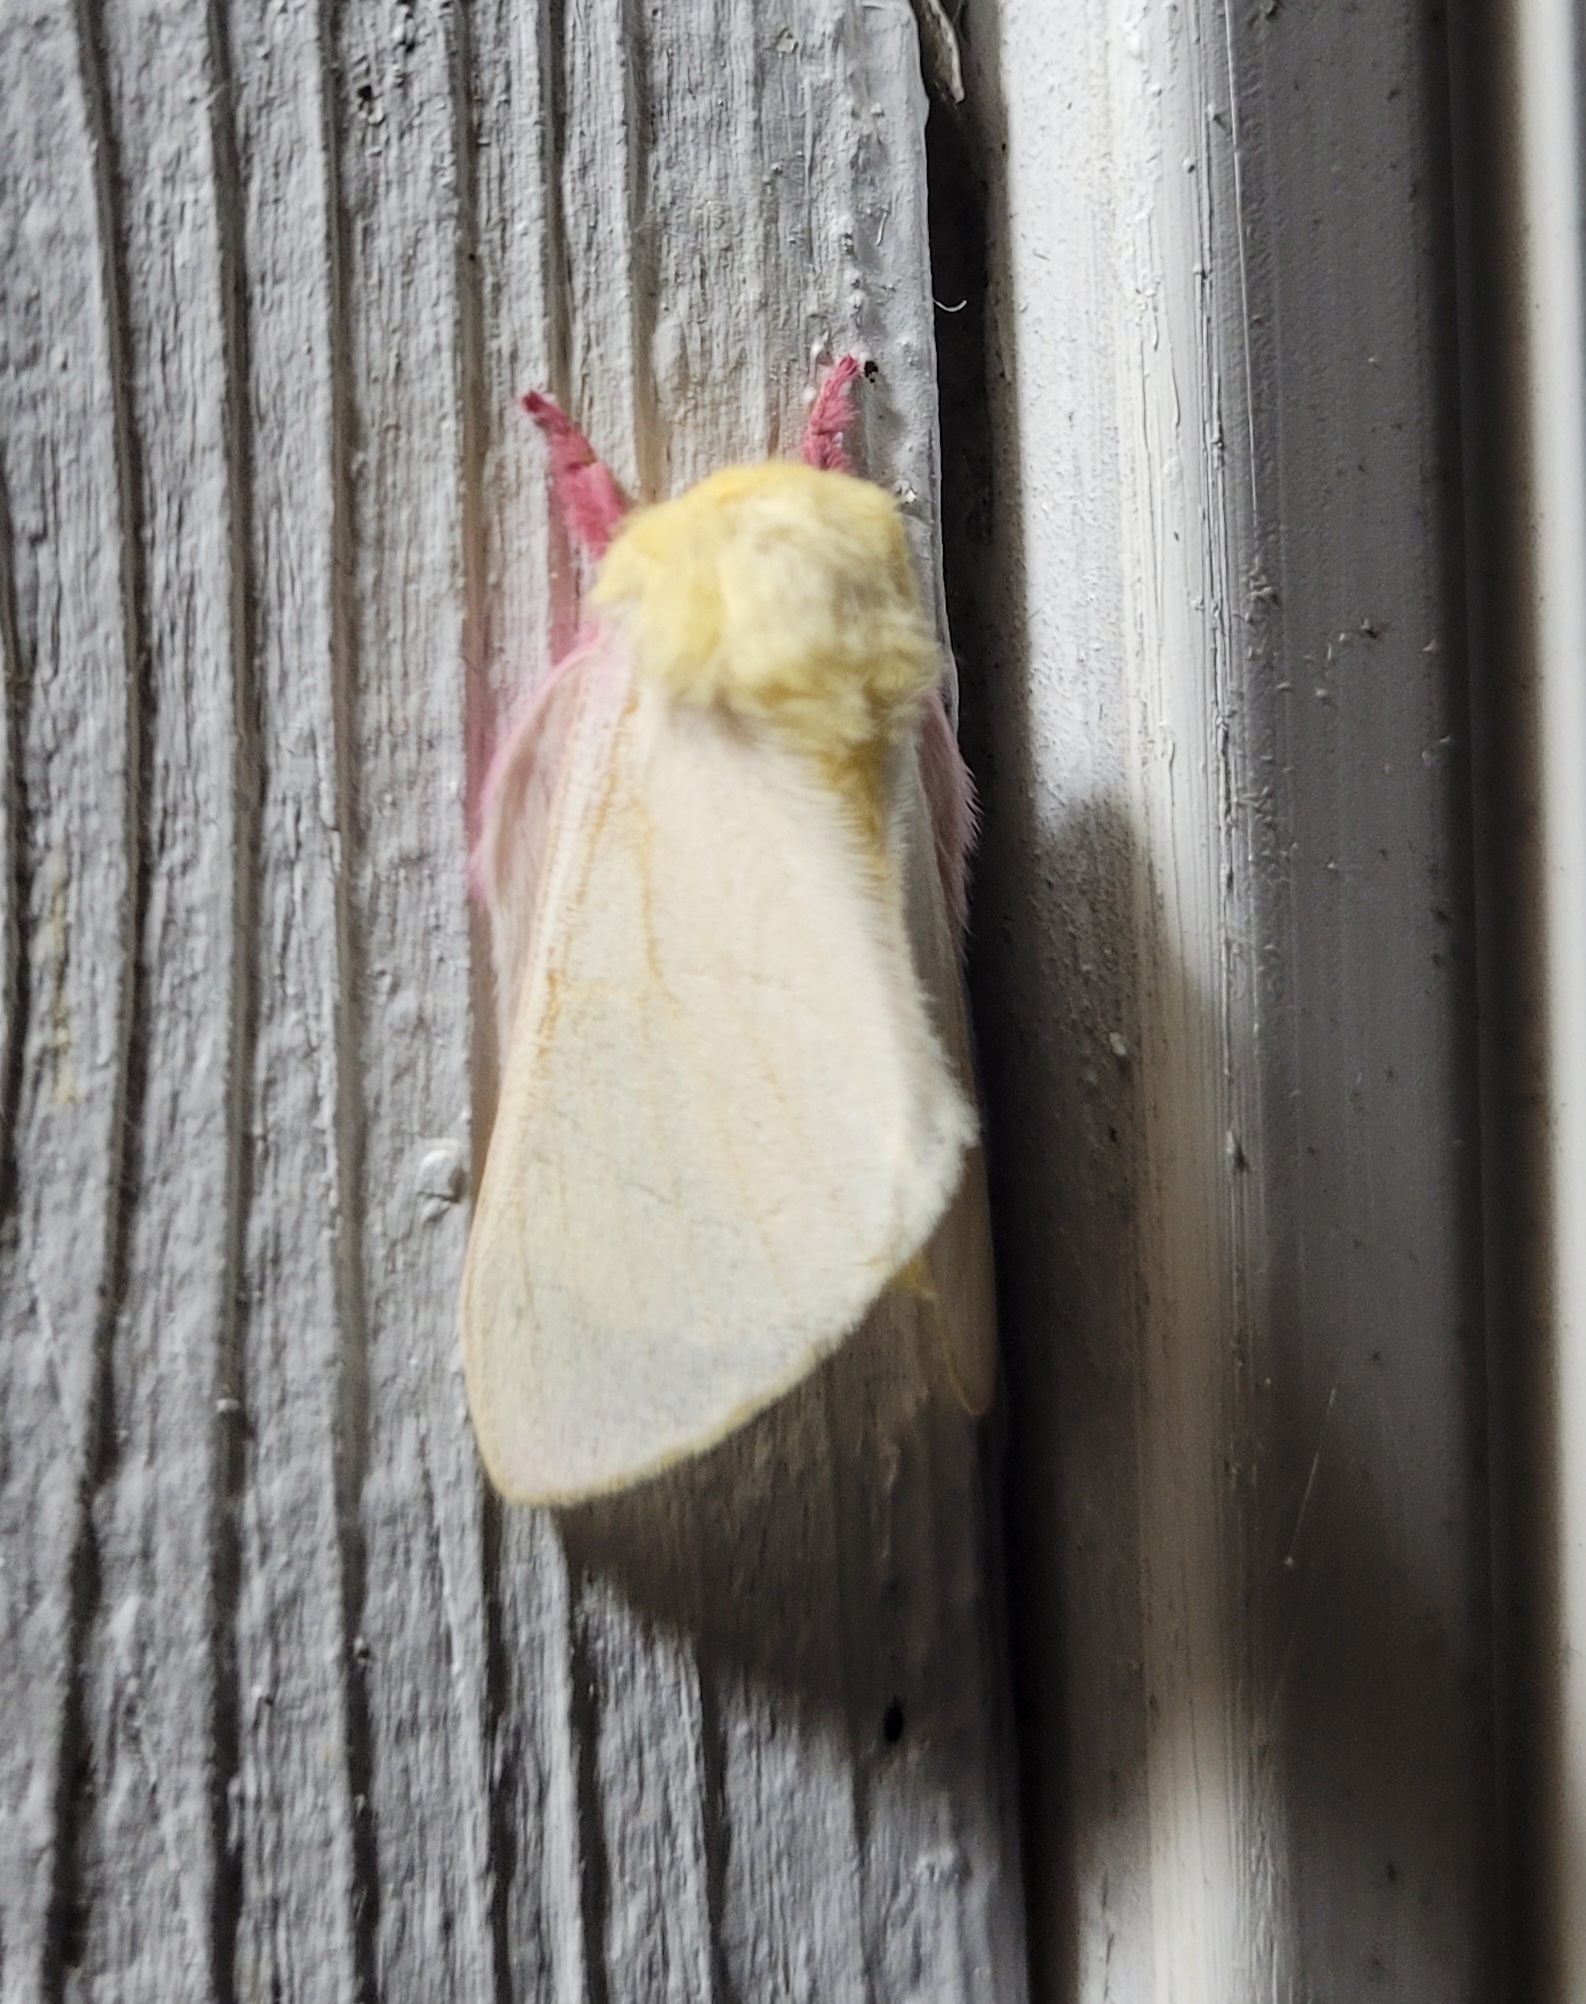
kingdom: Animalia
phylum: Arthropoda
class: Insecta
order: Lepidoptera
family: Saturniidae
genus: Dryocampa
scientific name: Dryocampa rubicunda
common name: Rosy maple moth
